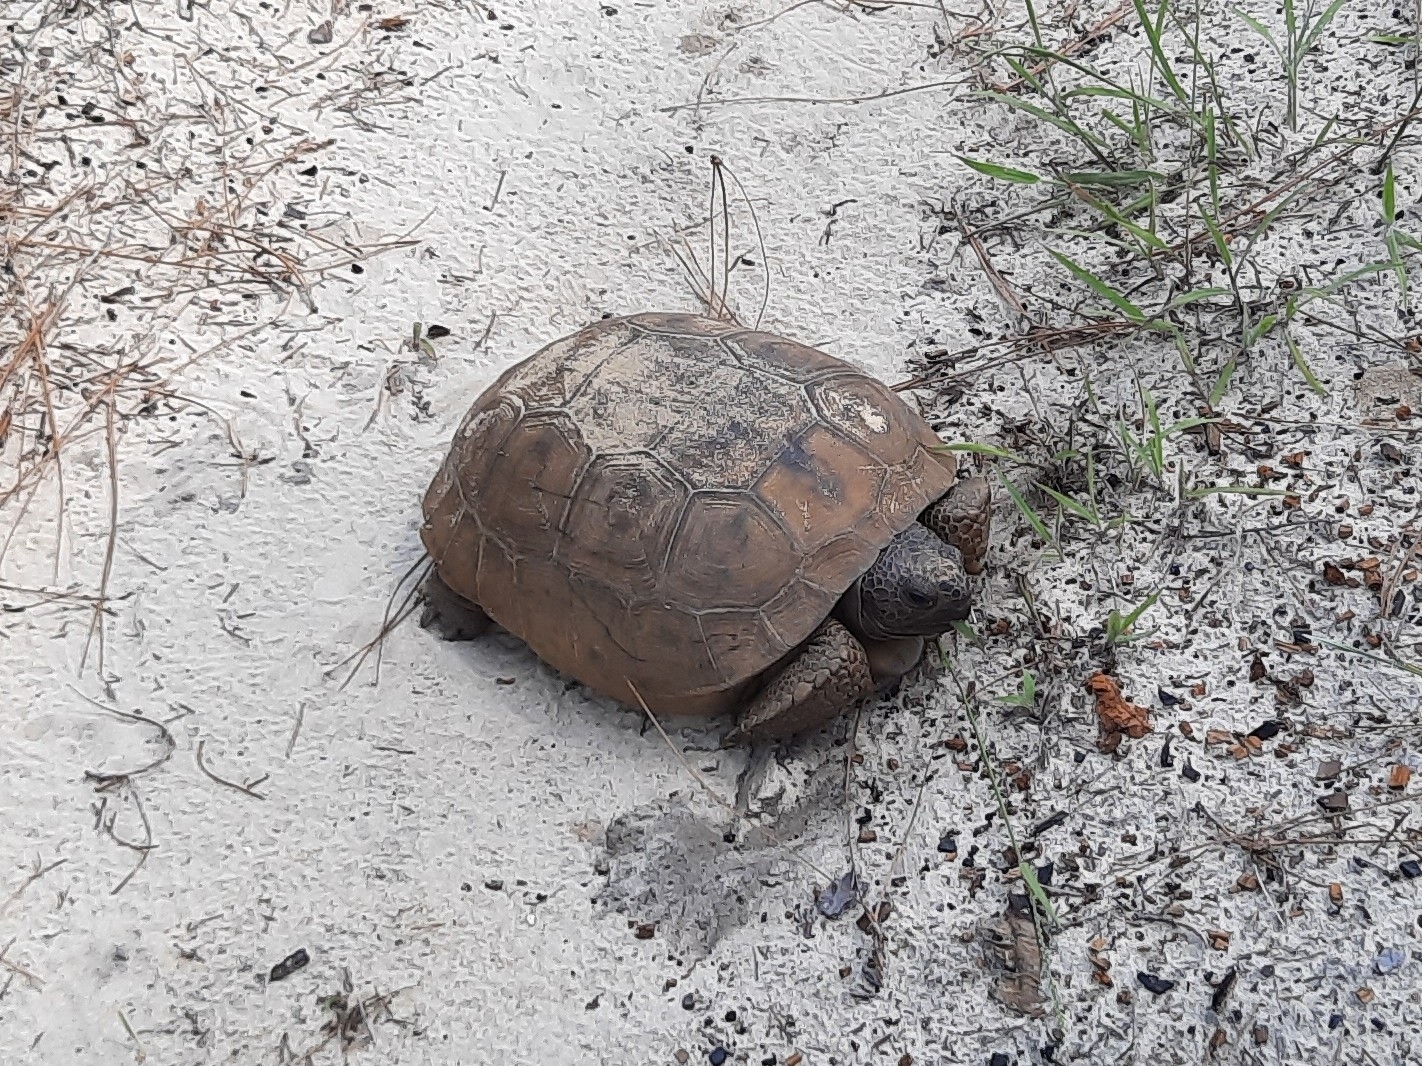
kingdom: Animalia
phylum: Chordata
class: Testudines
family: Testudinidae
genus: Gopherus
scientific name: Gopherus polyphemus
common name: Florida gopher tortoise
